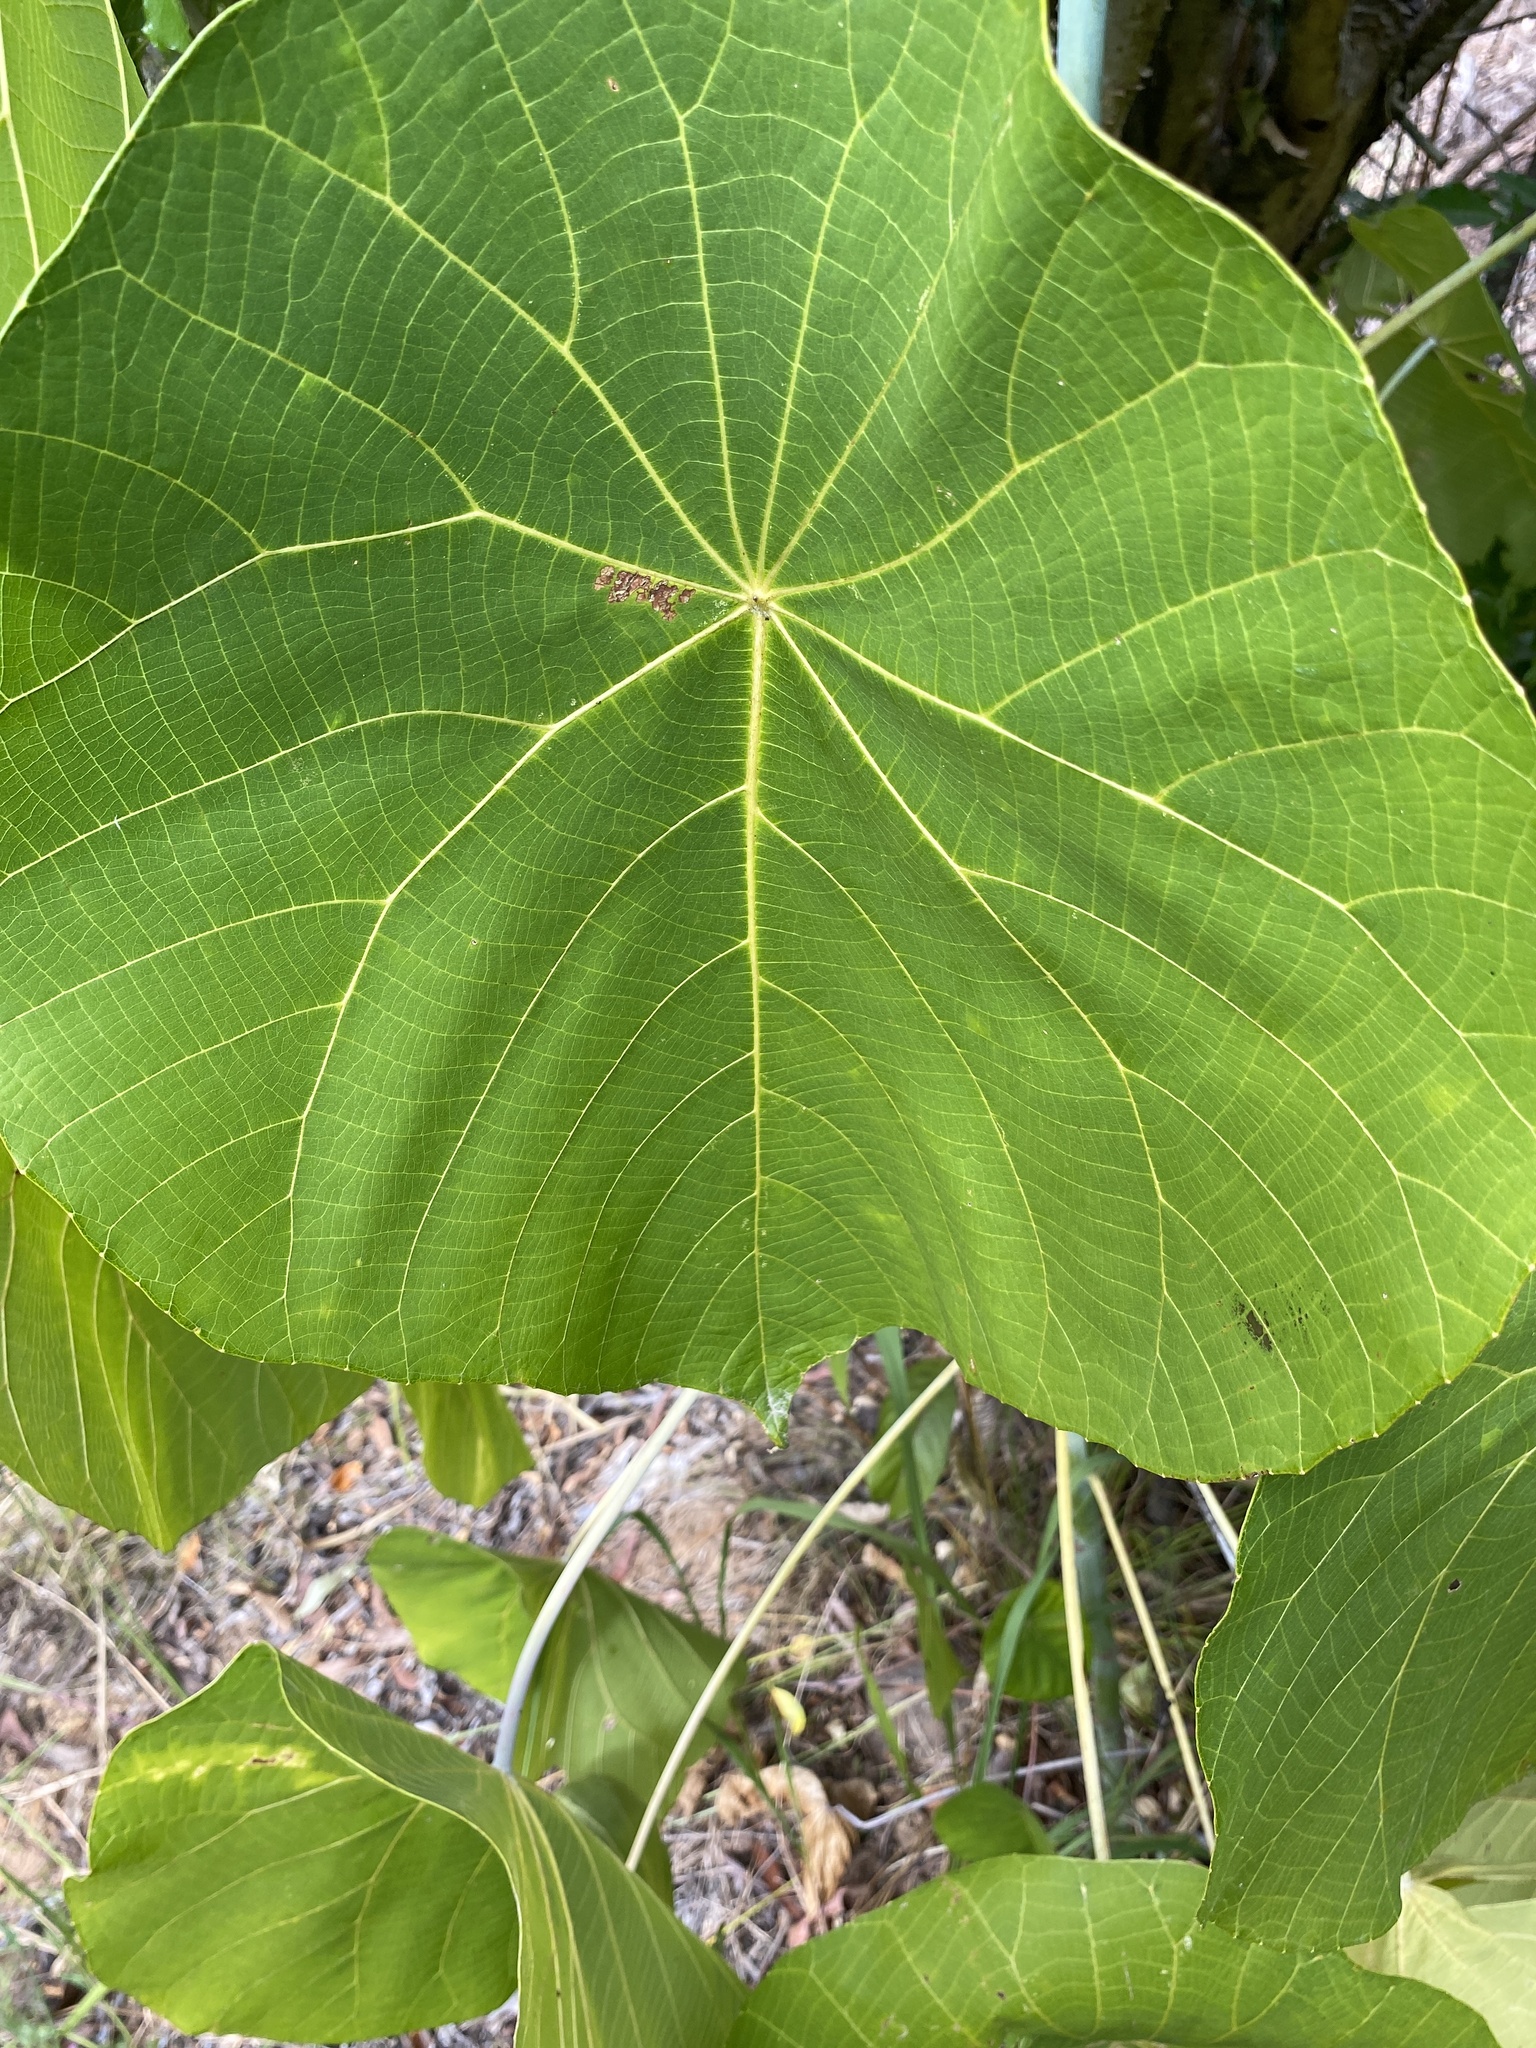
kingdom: Plantae
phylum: Tracheophyta
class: Magnoliopsida
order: Malpighiales
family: Euphorbiaceae
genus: Macaranga
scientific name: Macaranga tanarius
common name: Parasol leaf tree
